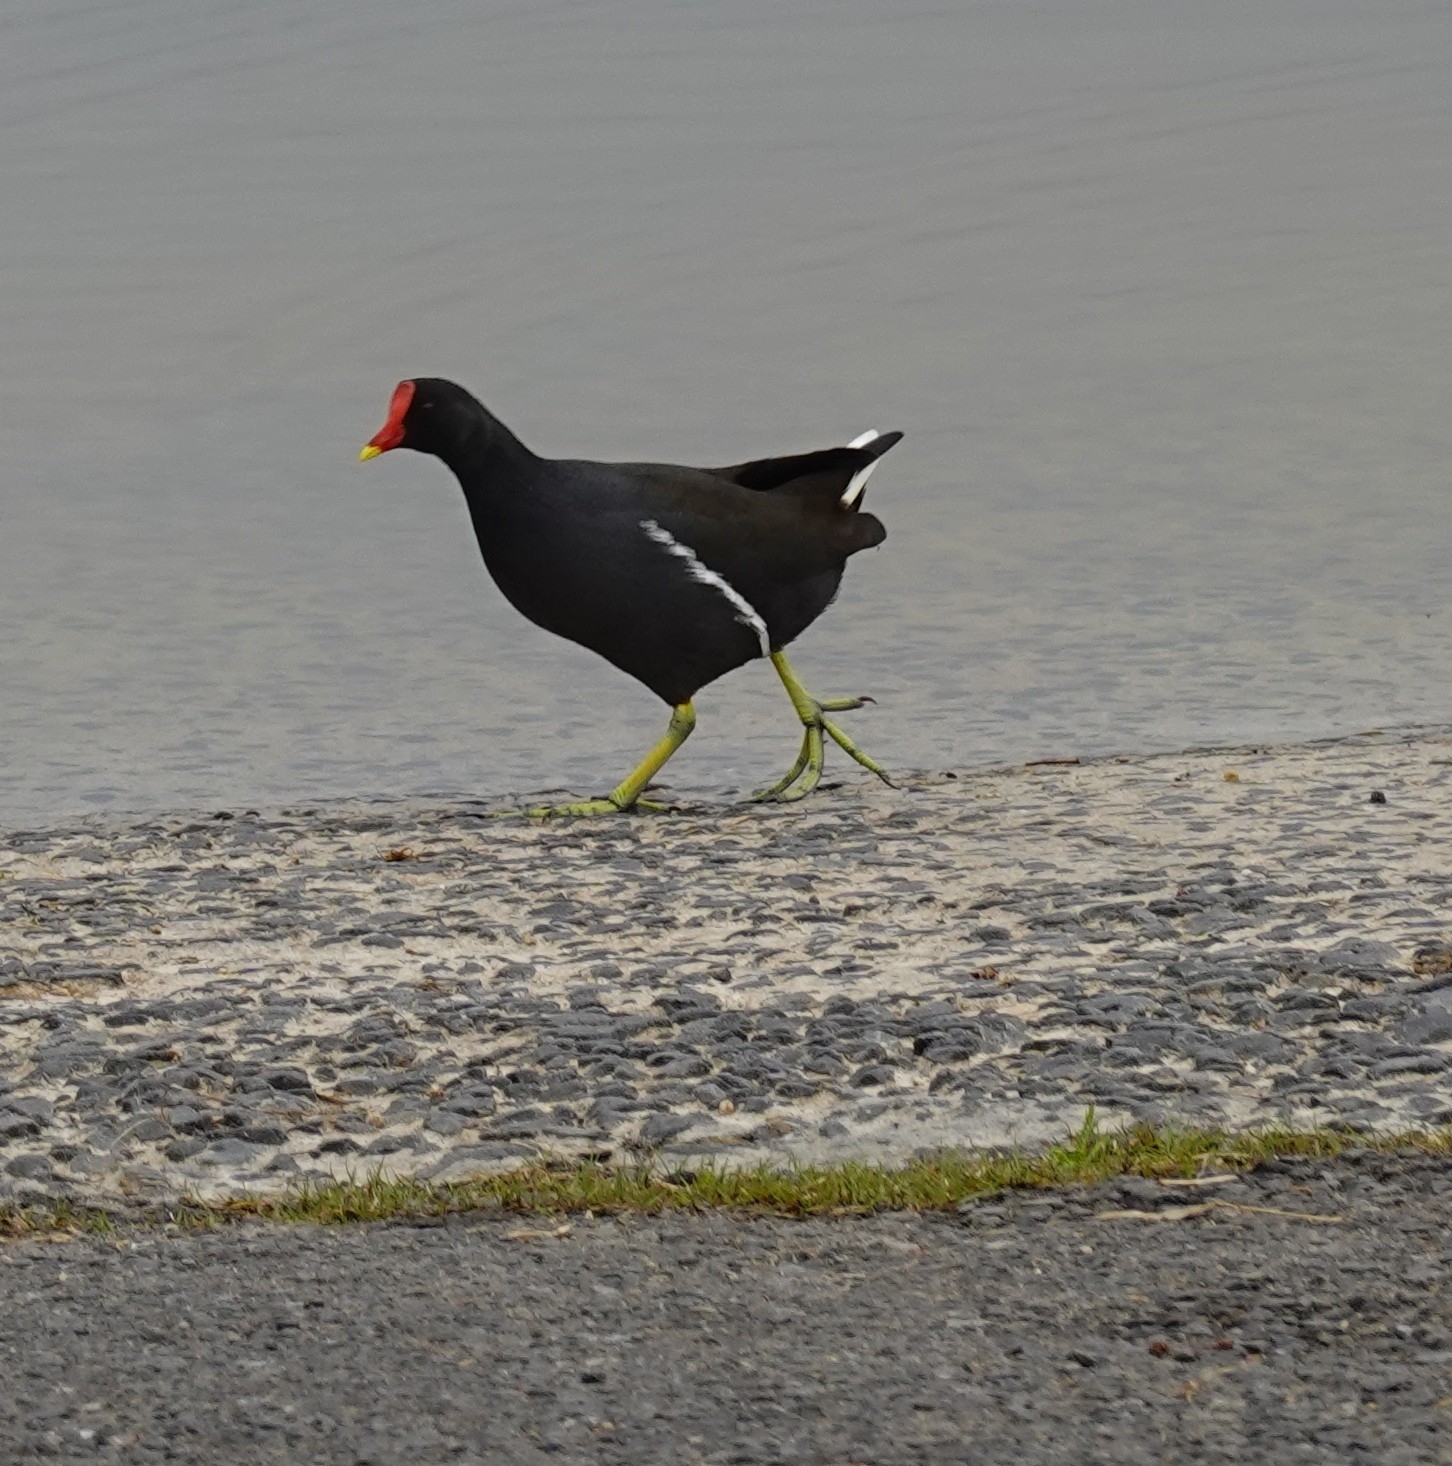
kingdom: Animalia
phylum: Chordata
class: Aves
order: Gruiformes
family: Rallidae
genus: Gallinula
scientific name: Gallinula chloropus
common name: Common moorhen
